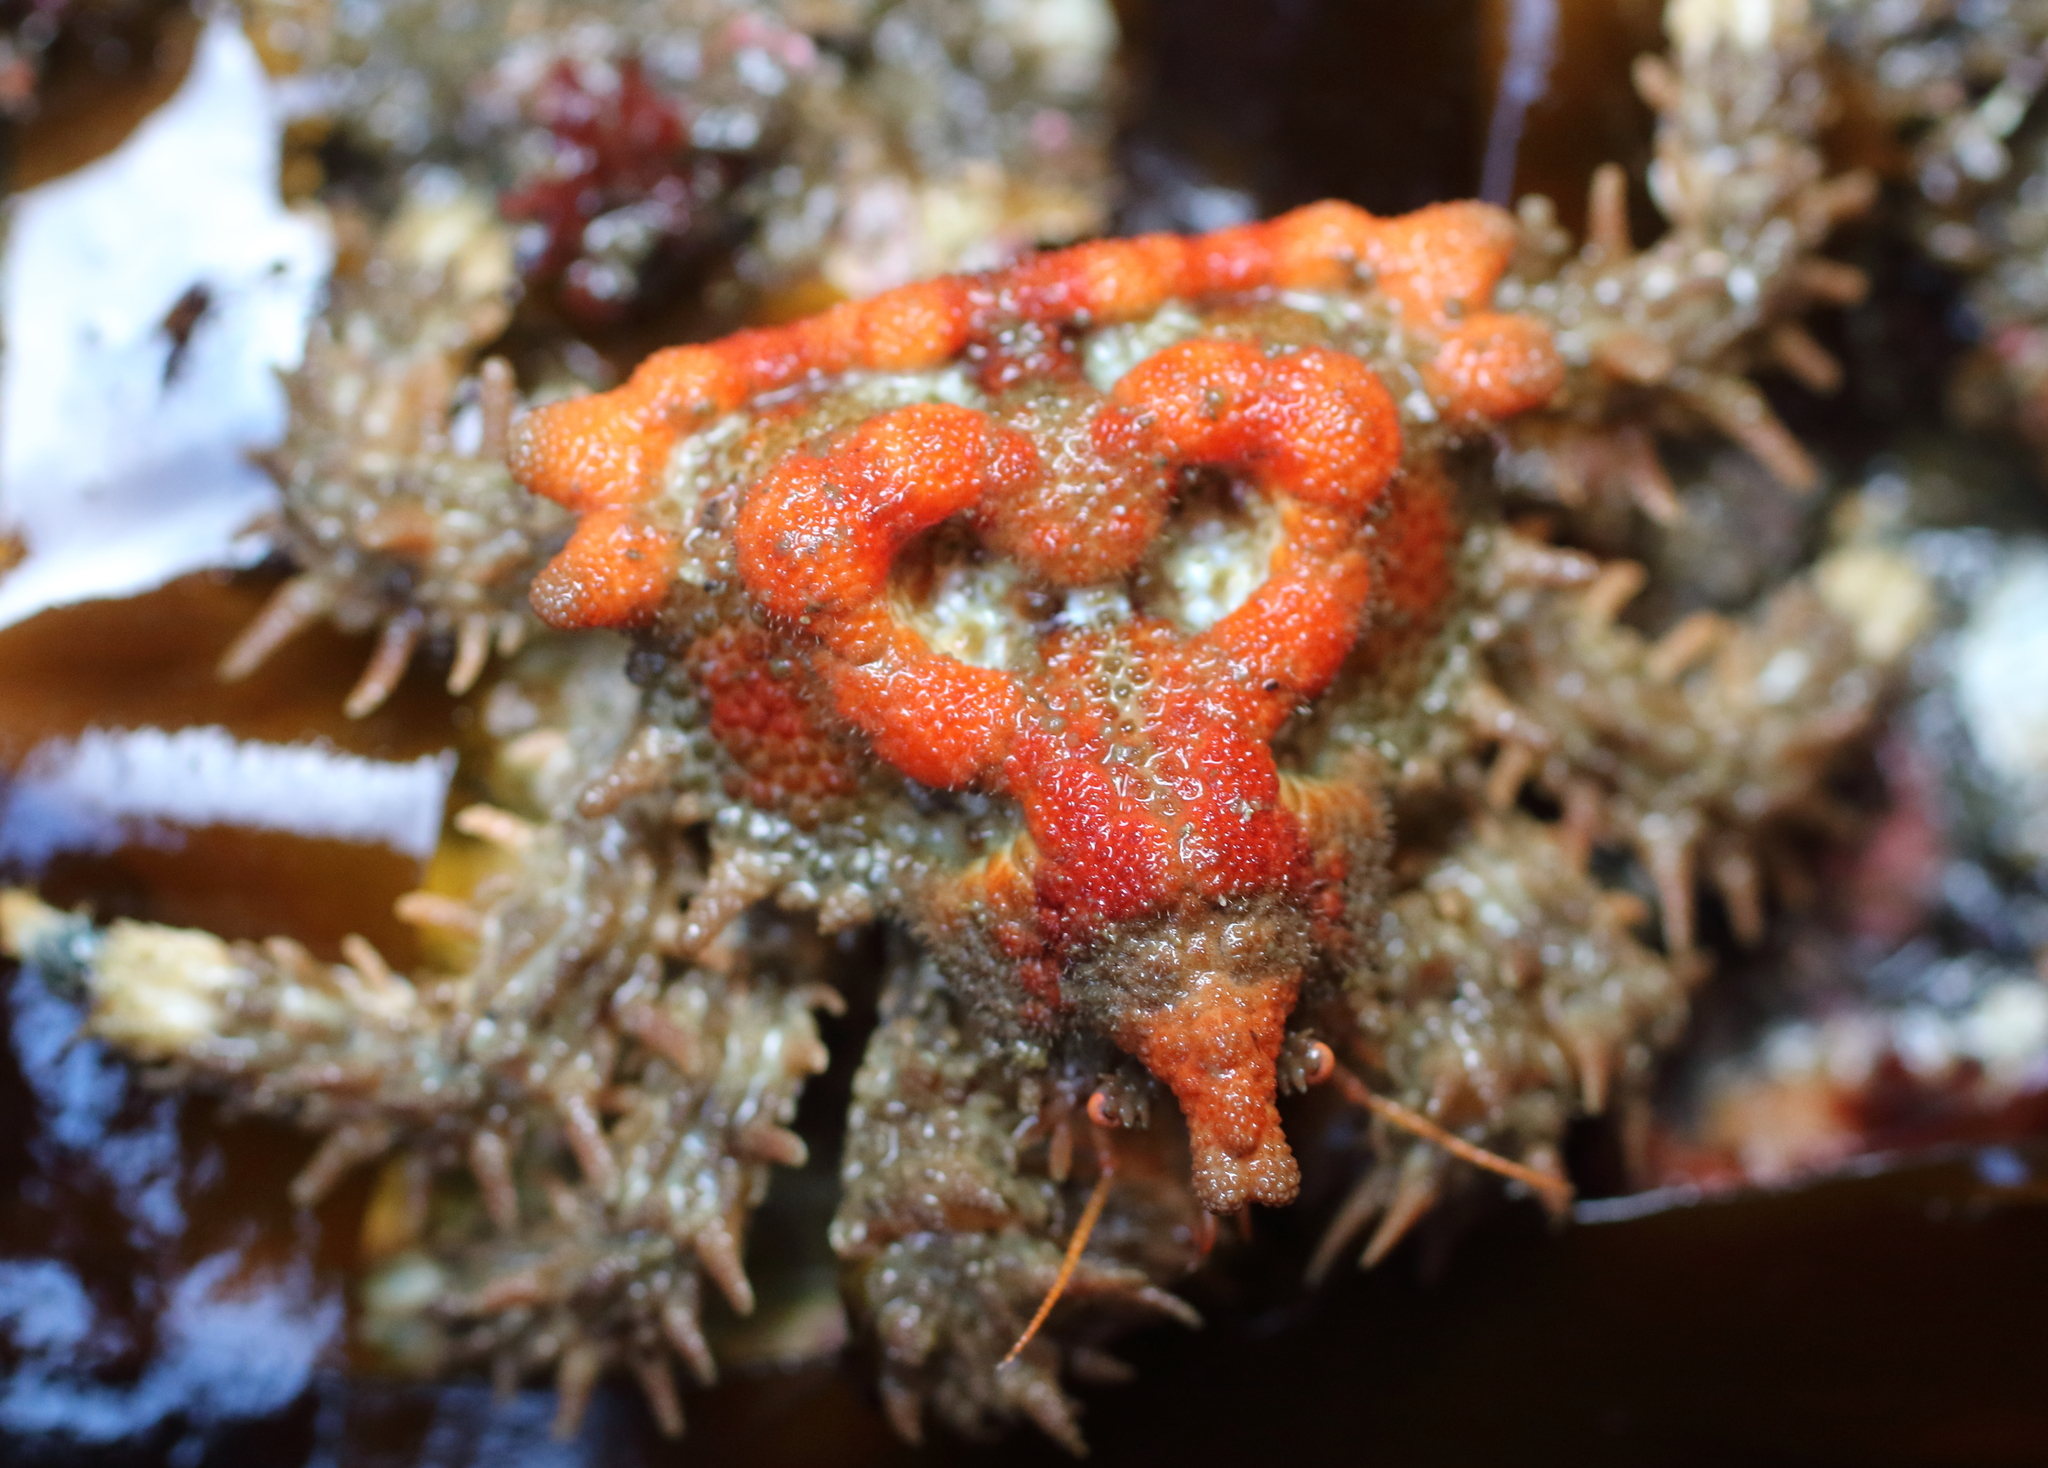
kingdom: Animalia
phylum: Arthropoda
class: Malacostraca
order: Decapoda
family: Lithodidae
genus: Phyllolithodes
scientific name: Phyllolithodes papillosus
